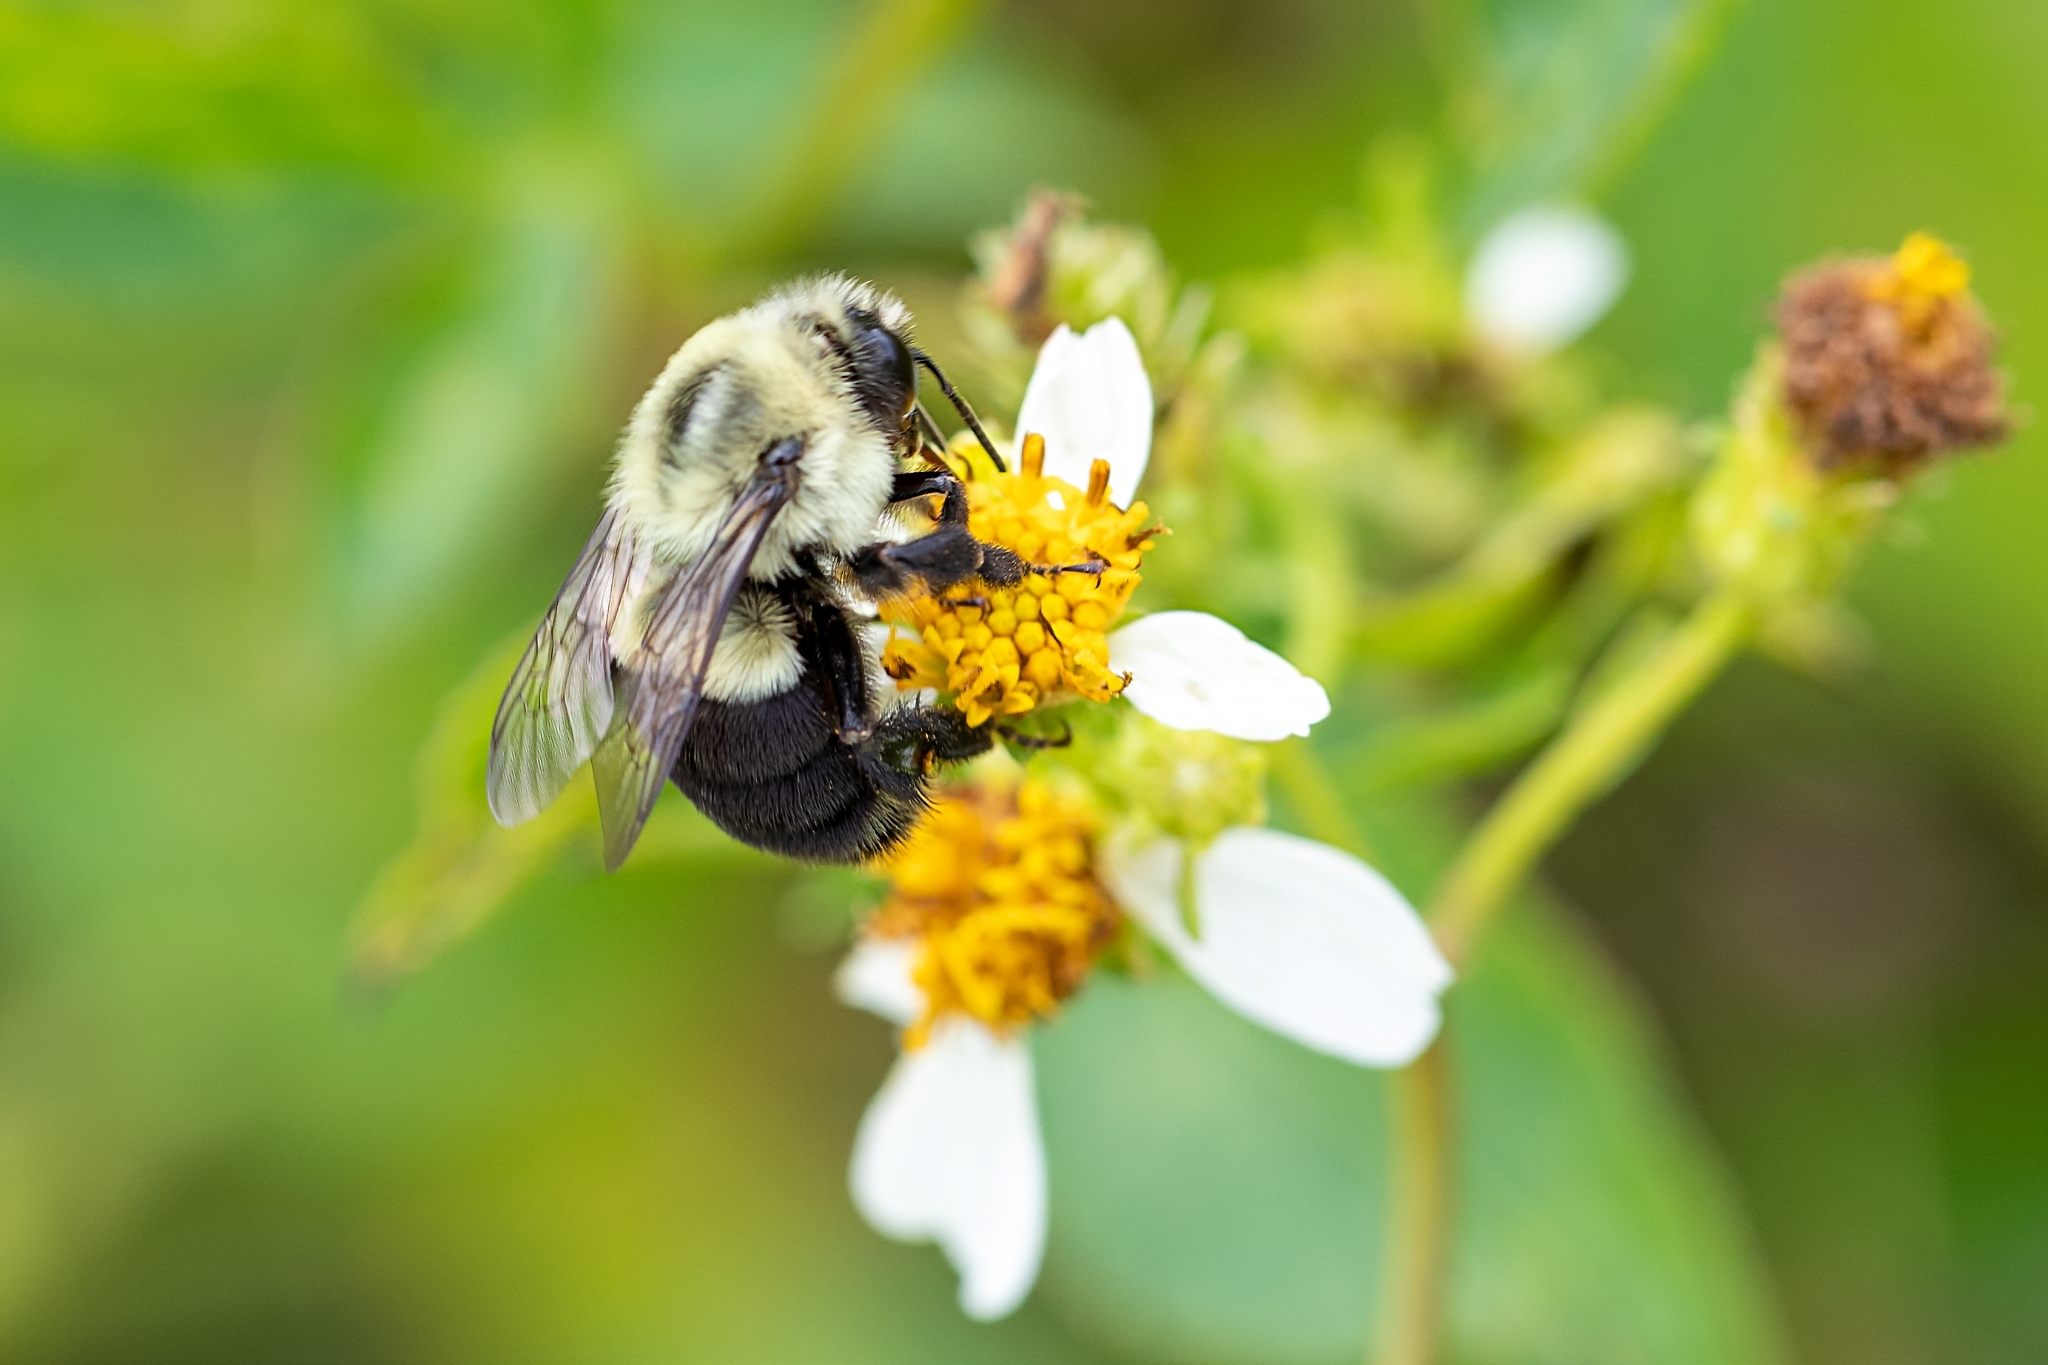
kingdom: Animalia
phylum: Arthropoda
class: Insecta
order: Hymenoptera
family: Apidae
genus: Bombus
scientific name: Bombus impatiens
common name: Common eastern bumble bee
